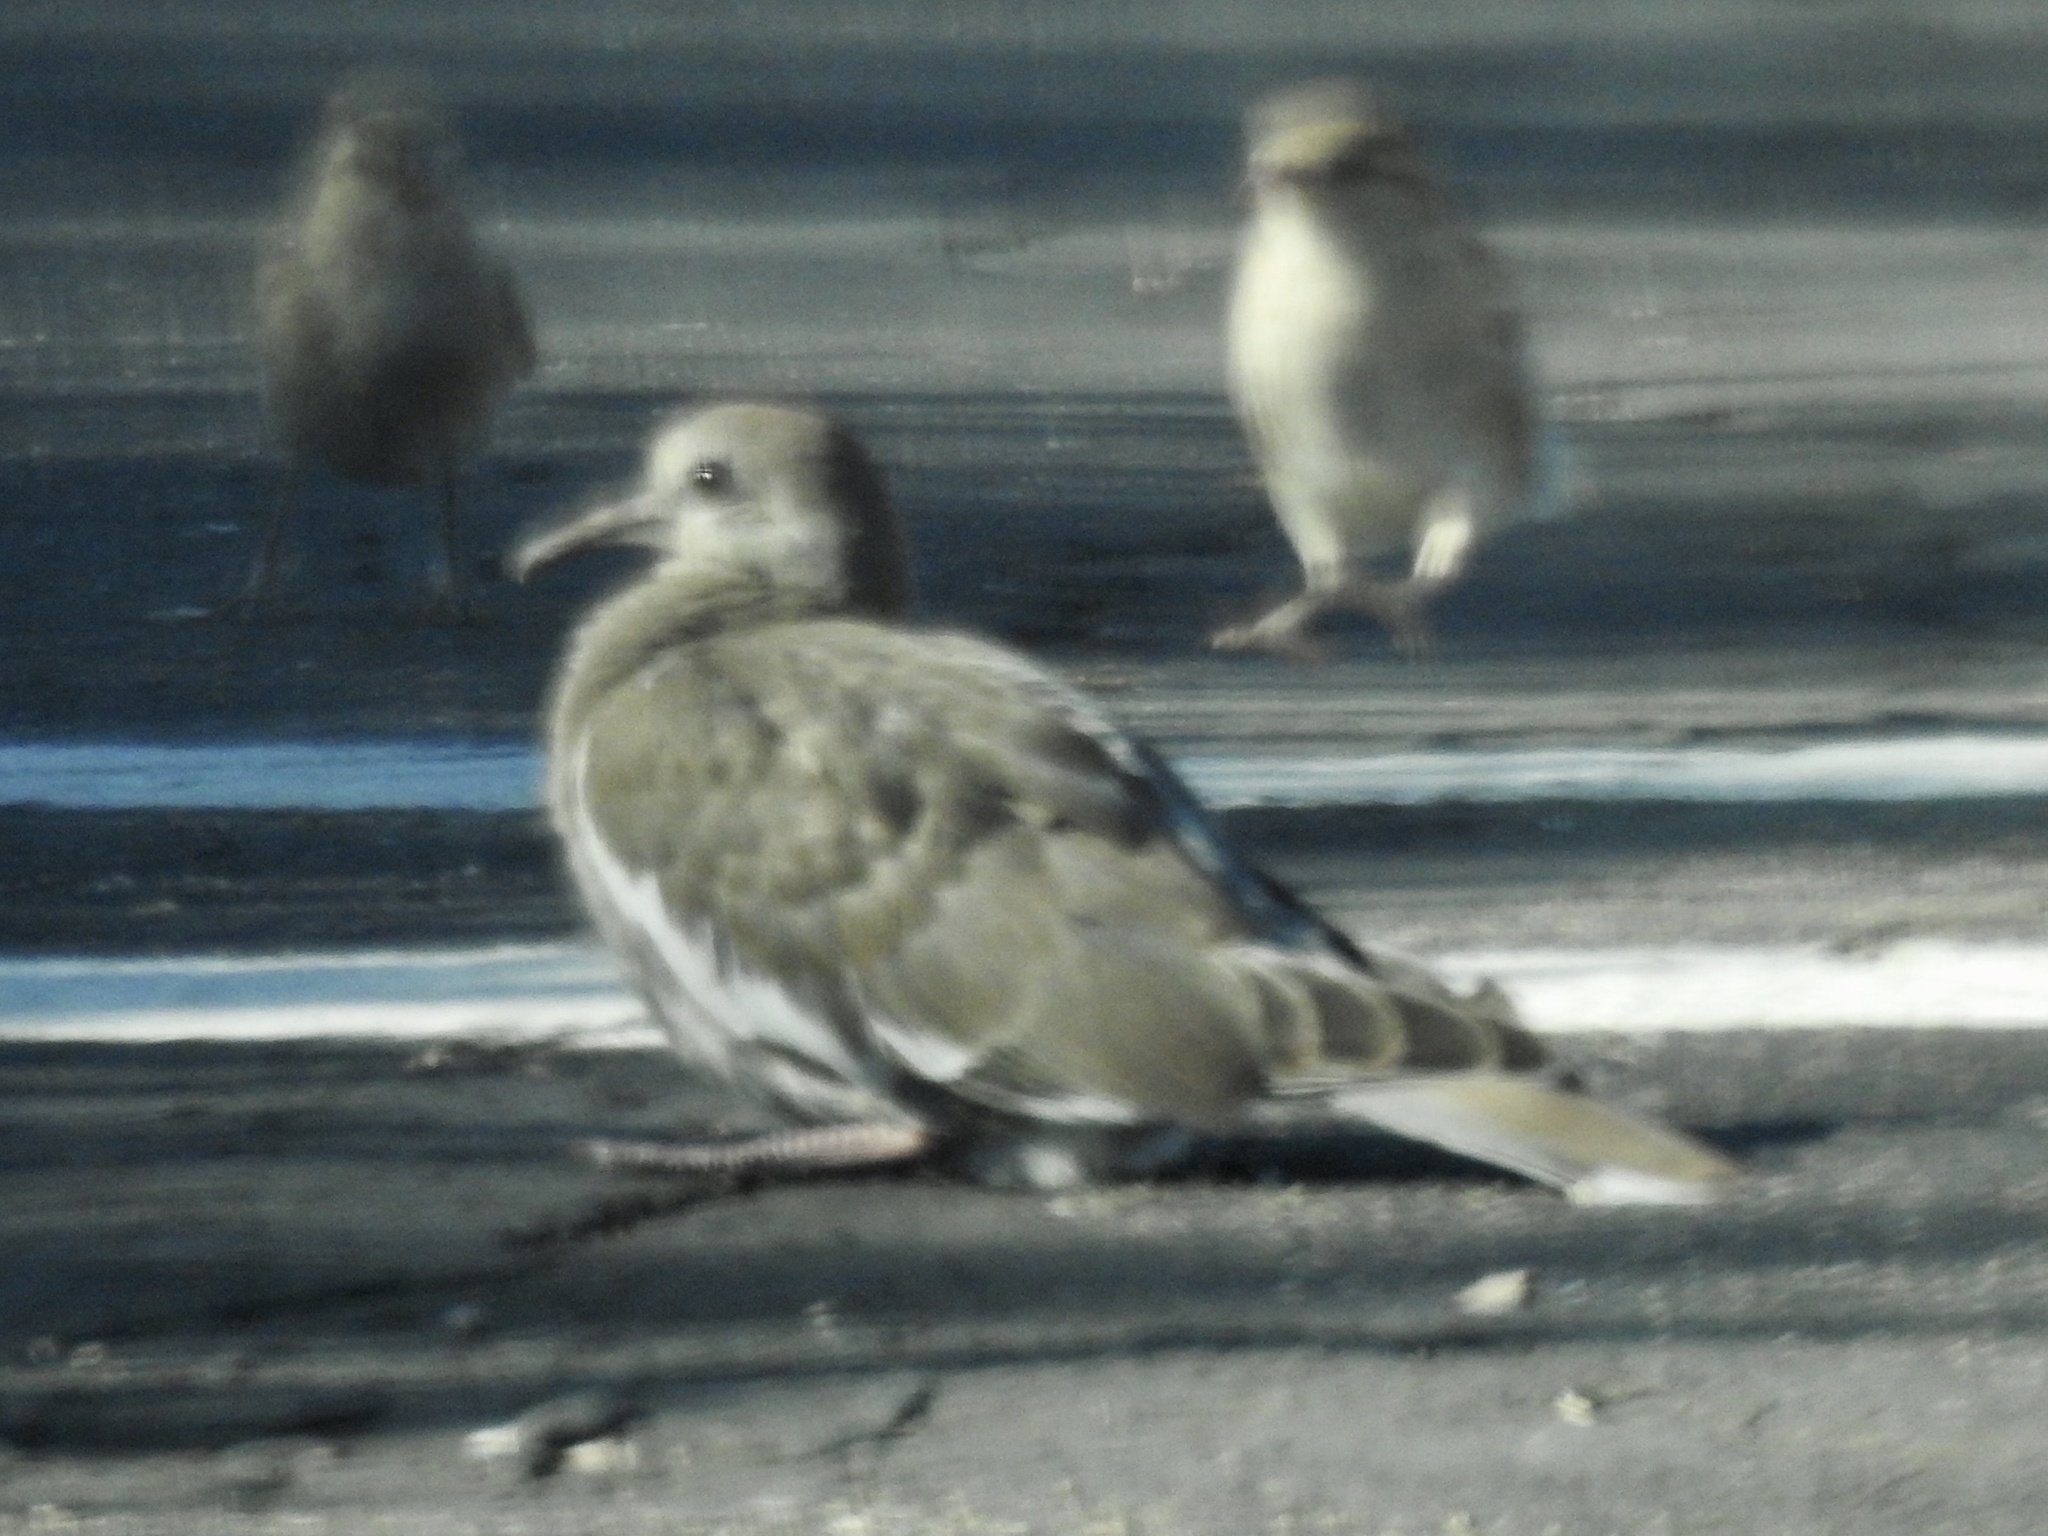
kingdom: Animalia
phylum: Chordata
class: Aves
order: Columbiformes
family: Columbidae
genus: Zenaida
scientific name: Zenaida asiatica
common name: White-winged dove
